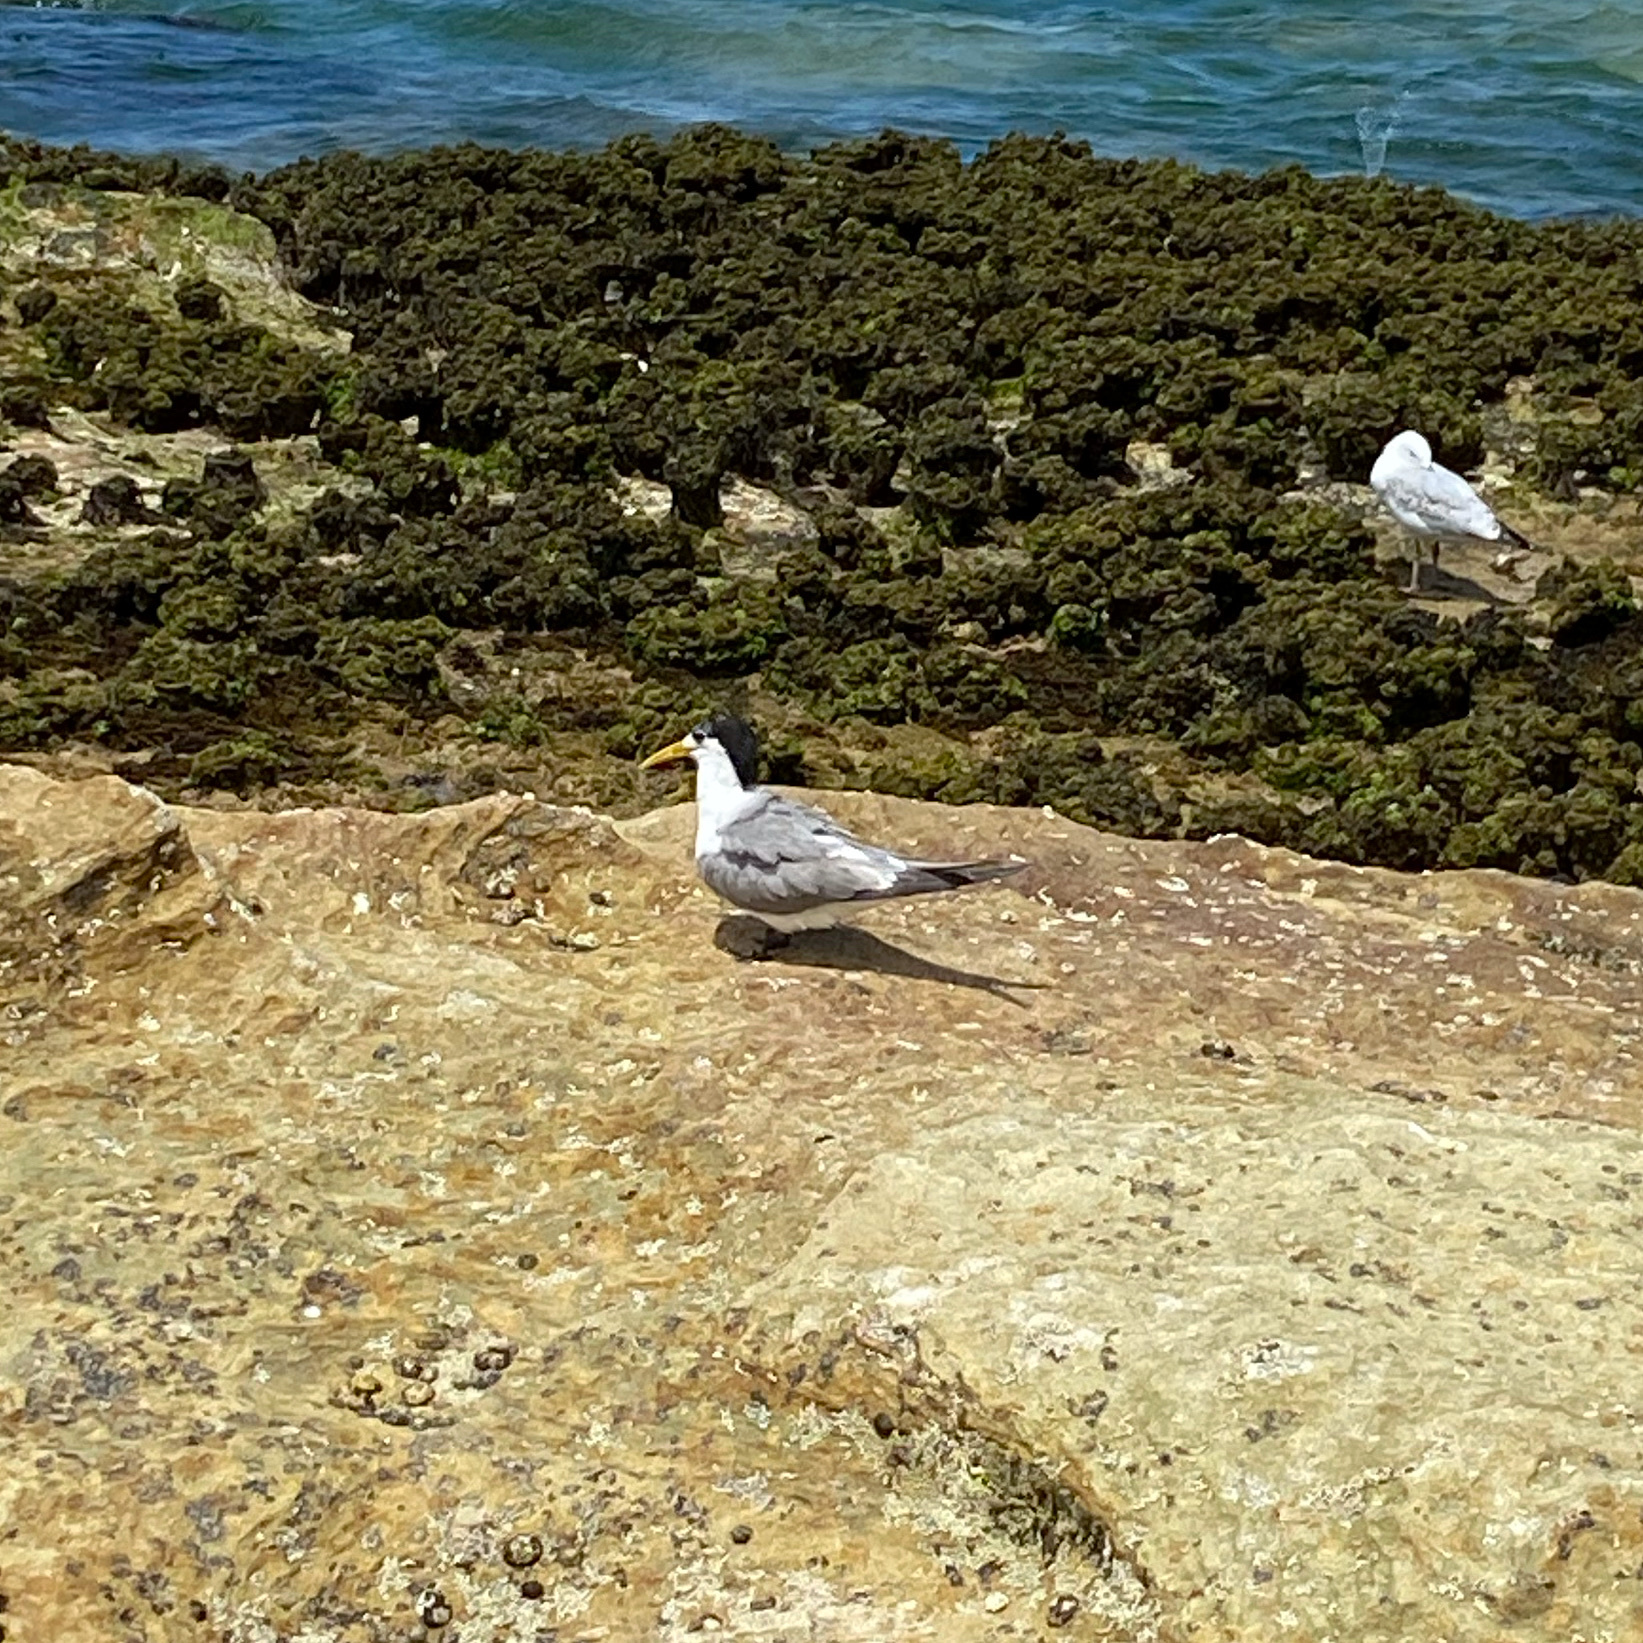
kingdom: Animalia
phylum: Chordata
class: Aves
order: Charadriiformes
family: Laridae
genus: Thalasseus
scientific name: Thalasseus bergii
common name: Greater crested tern
